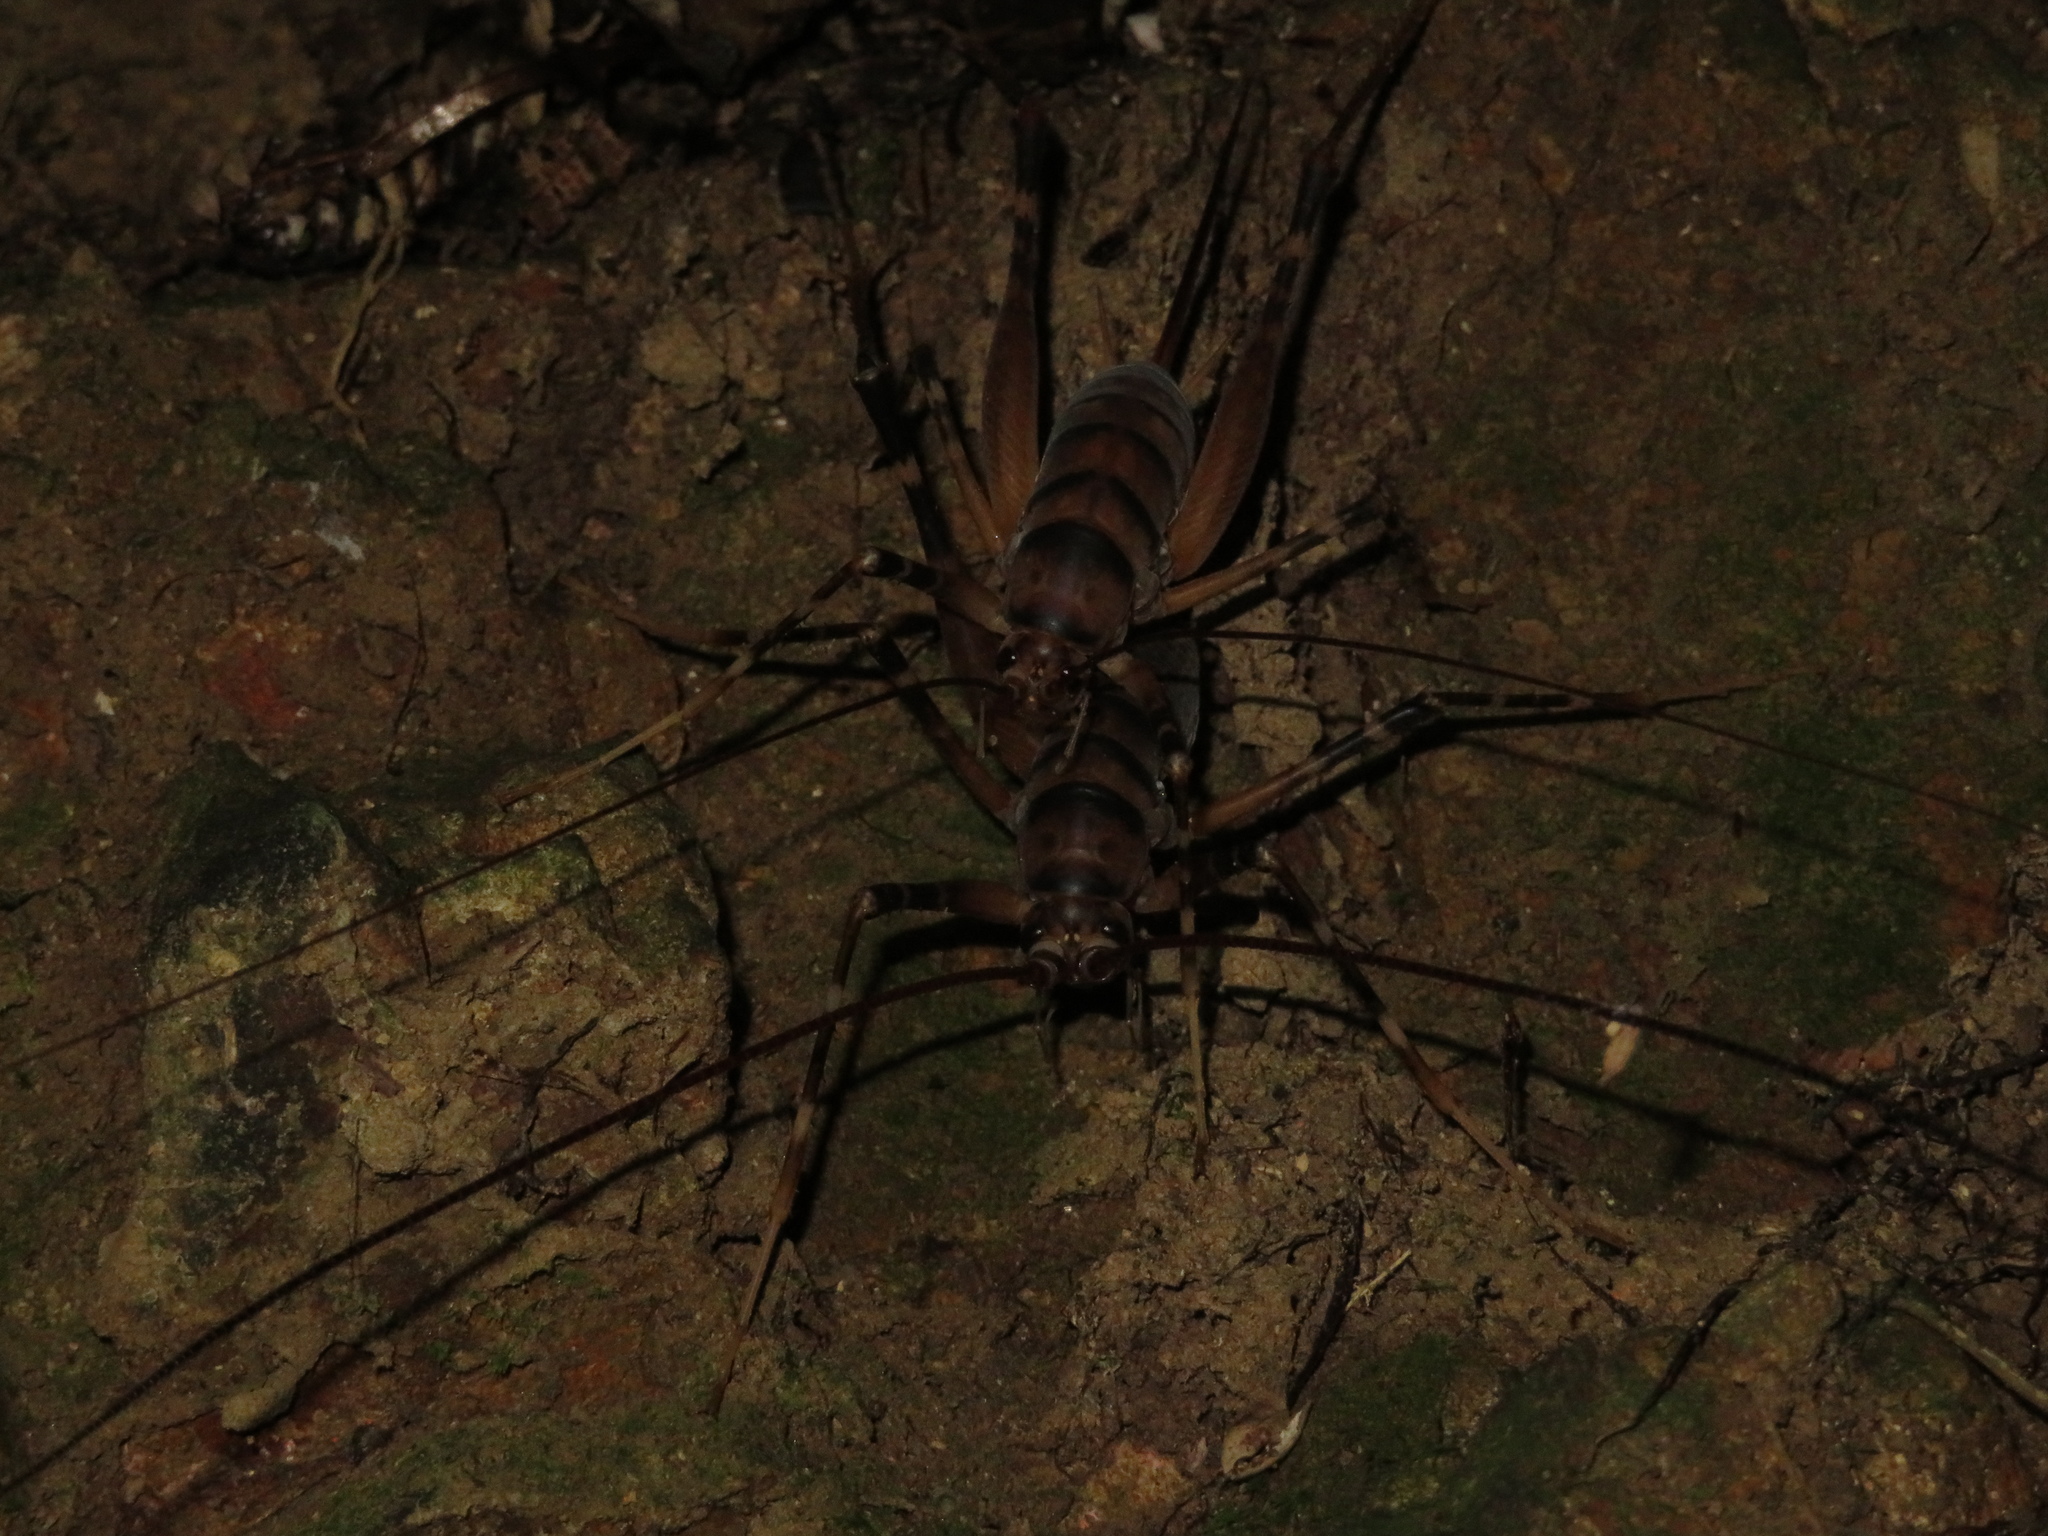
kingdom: Animalia
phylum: Arthropoda
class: Insecta
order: Orthoptera
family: Rhaphidophoridae
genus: Pachyrhamma
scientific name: Pachyrhamma edwardsii
